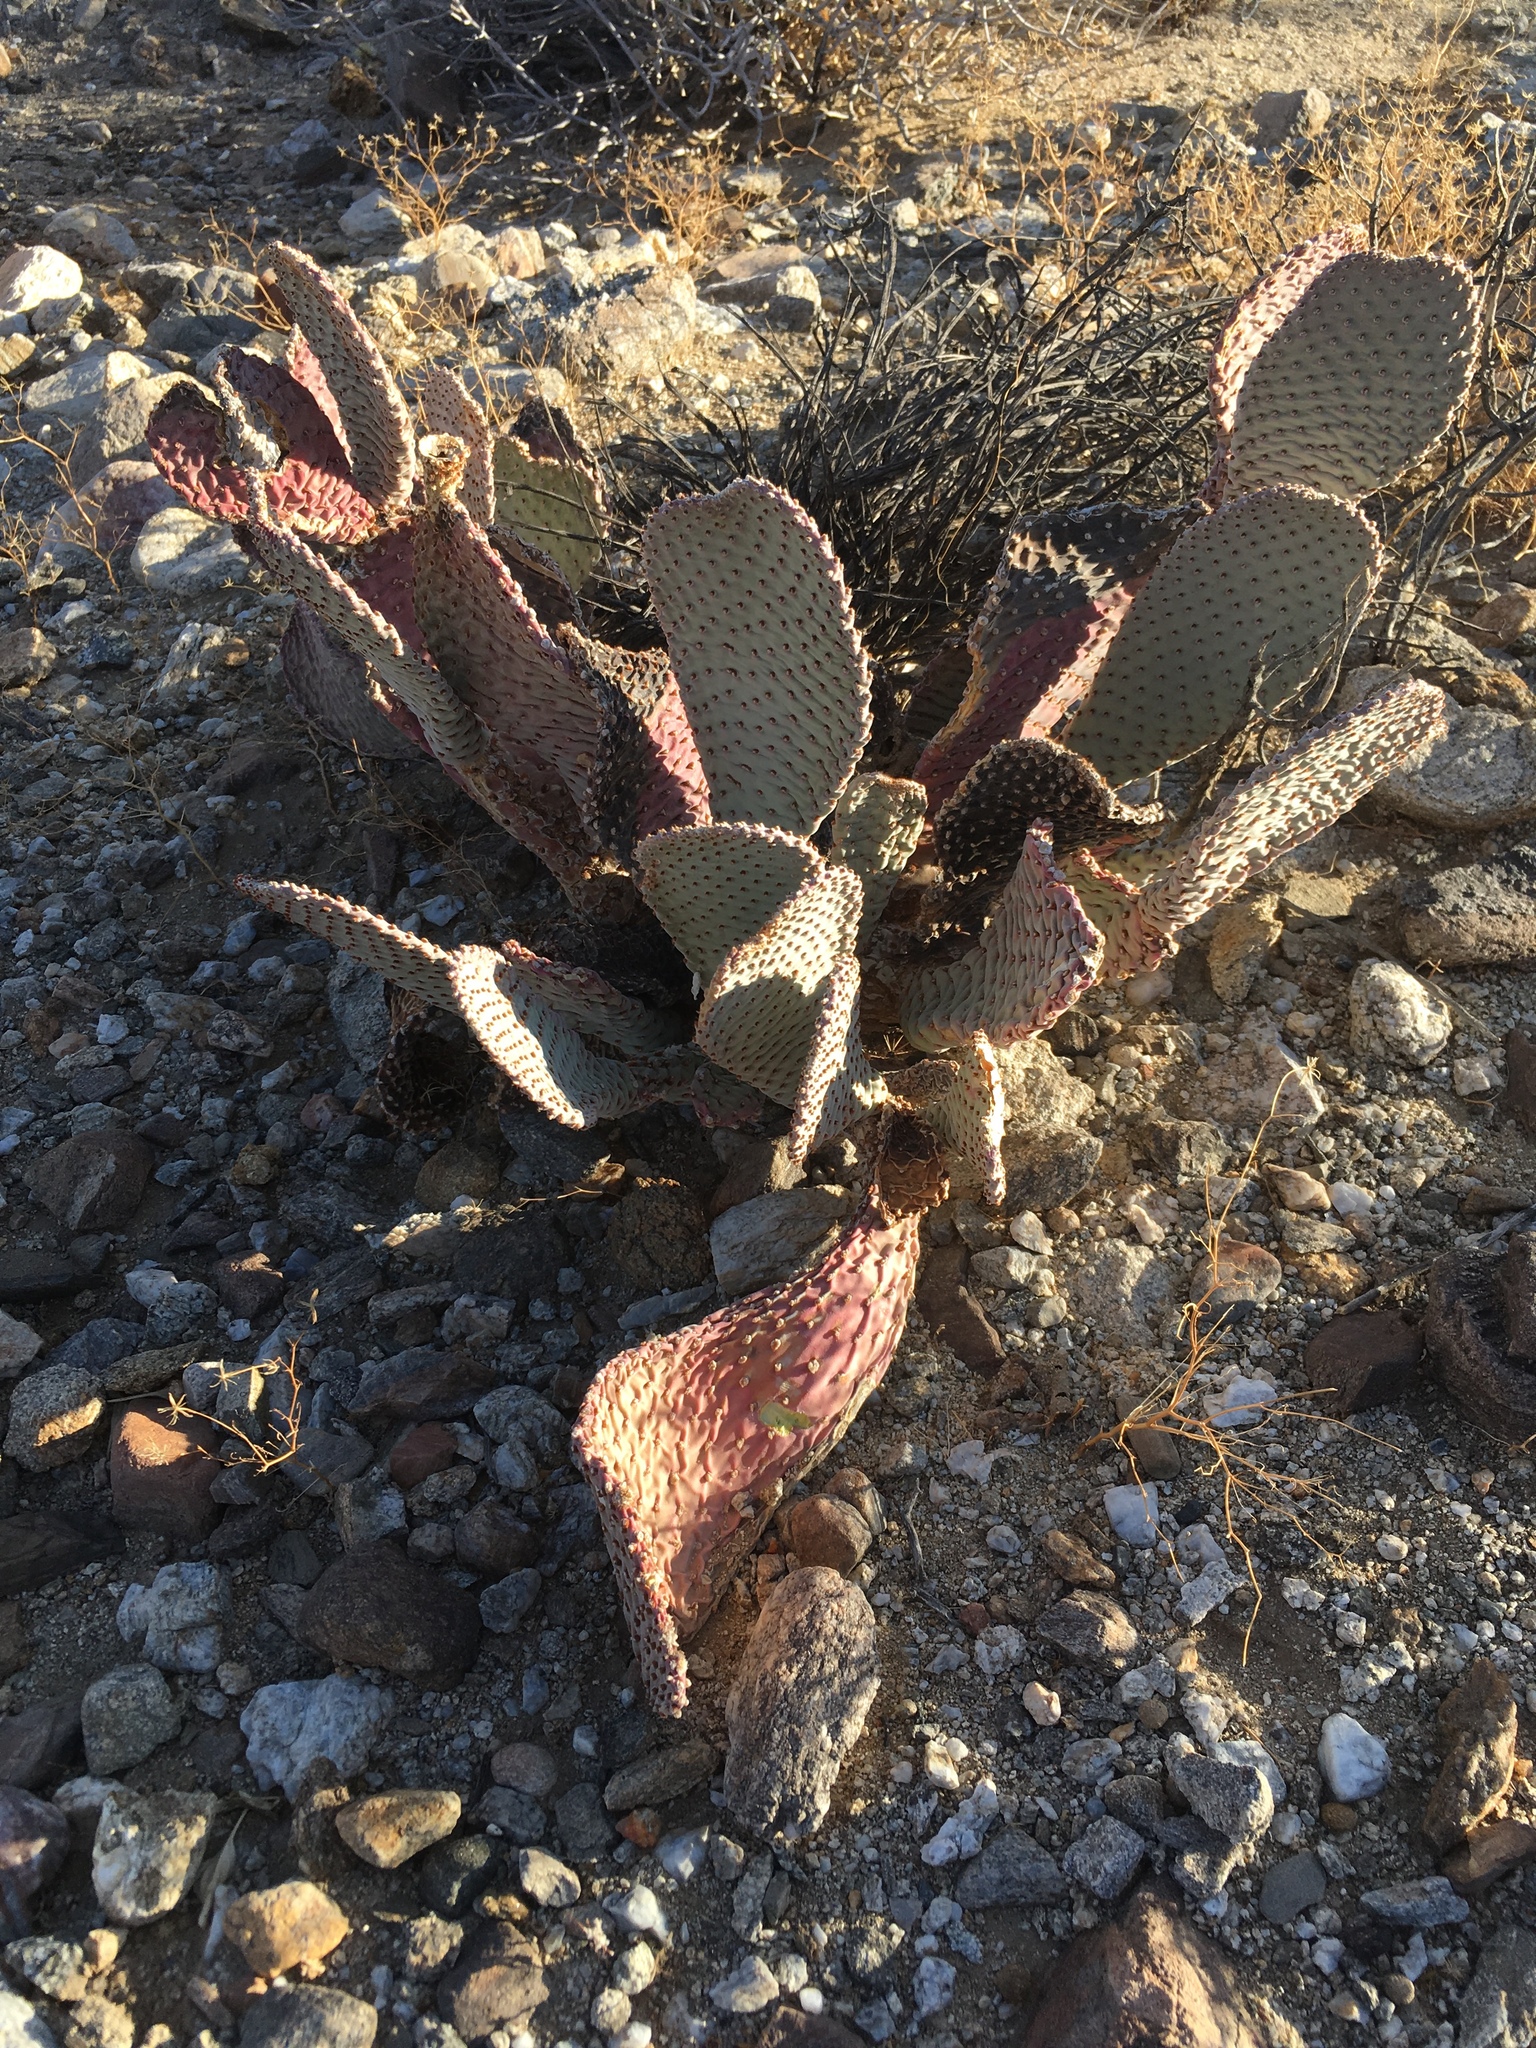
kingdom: Plantae
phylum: Tracheophyta
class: Magnoliopsida
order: Caryophyllales
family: Cactaceae
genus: Opuntia
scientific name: Opuntia basilaris
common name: Beavertail prickly-pear
